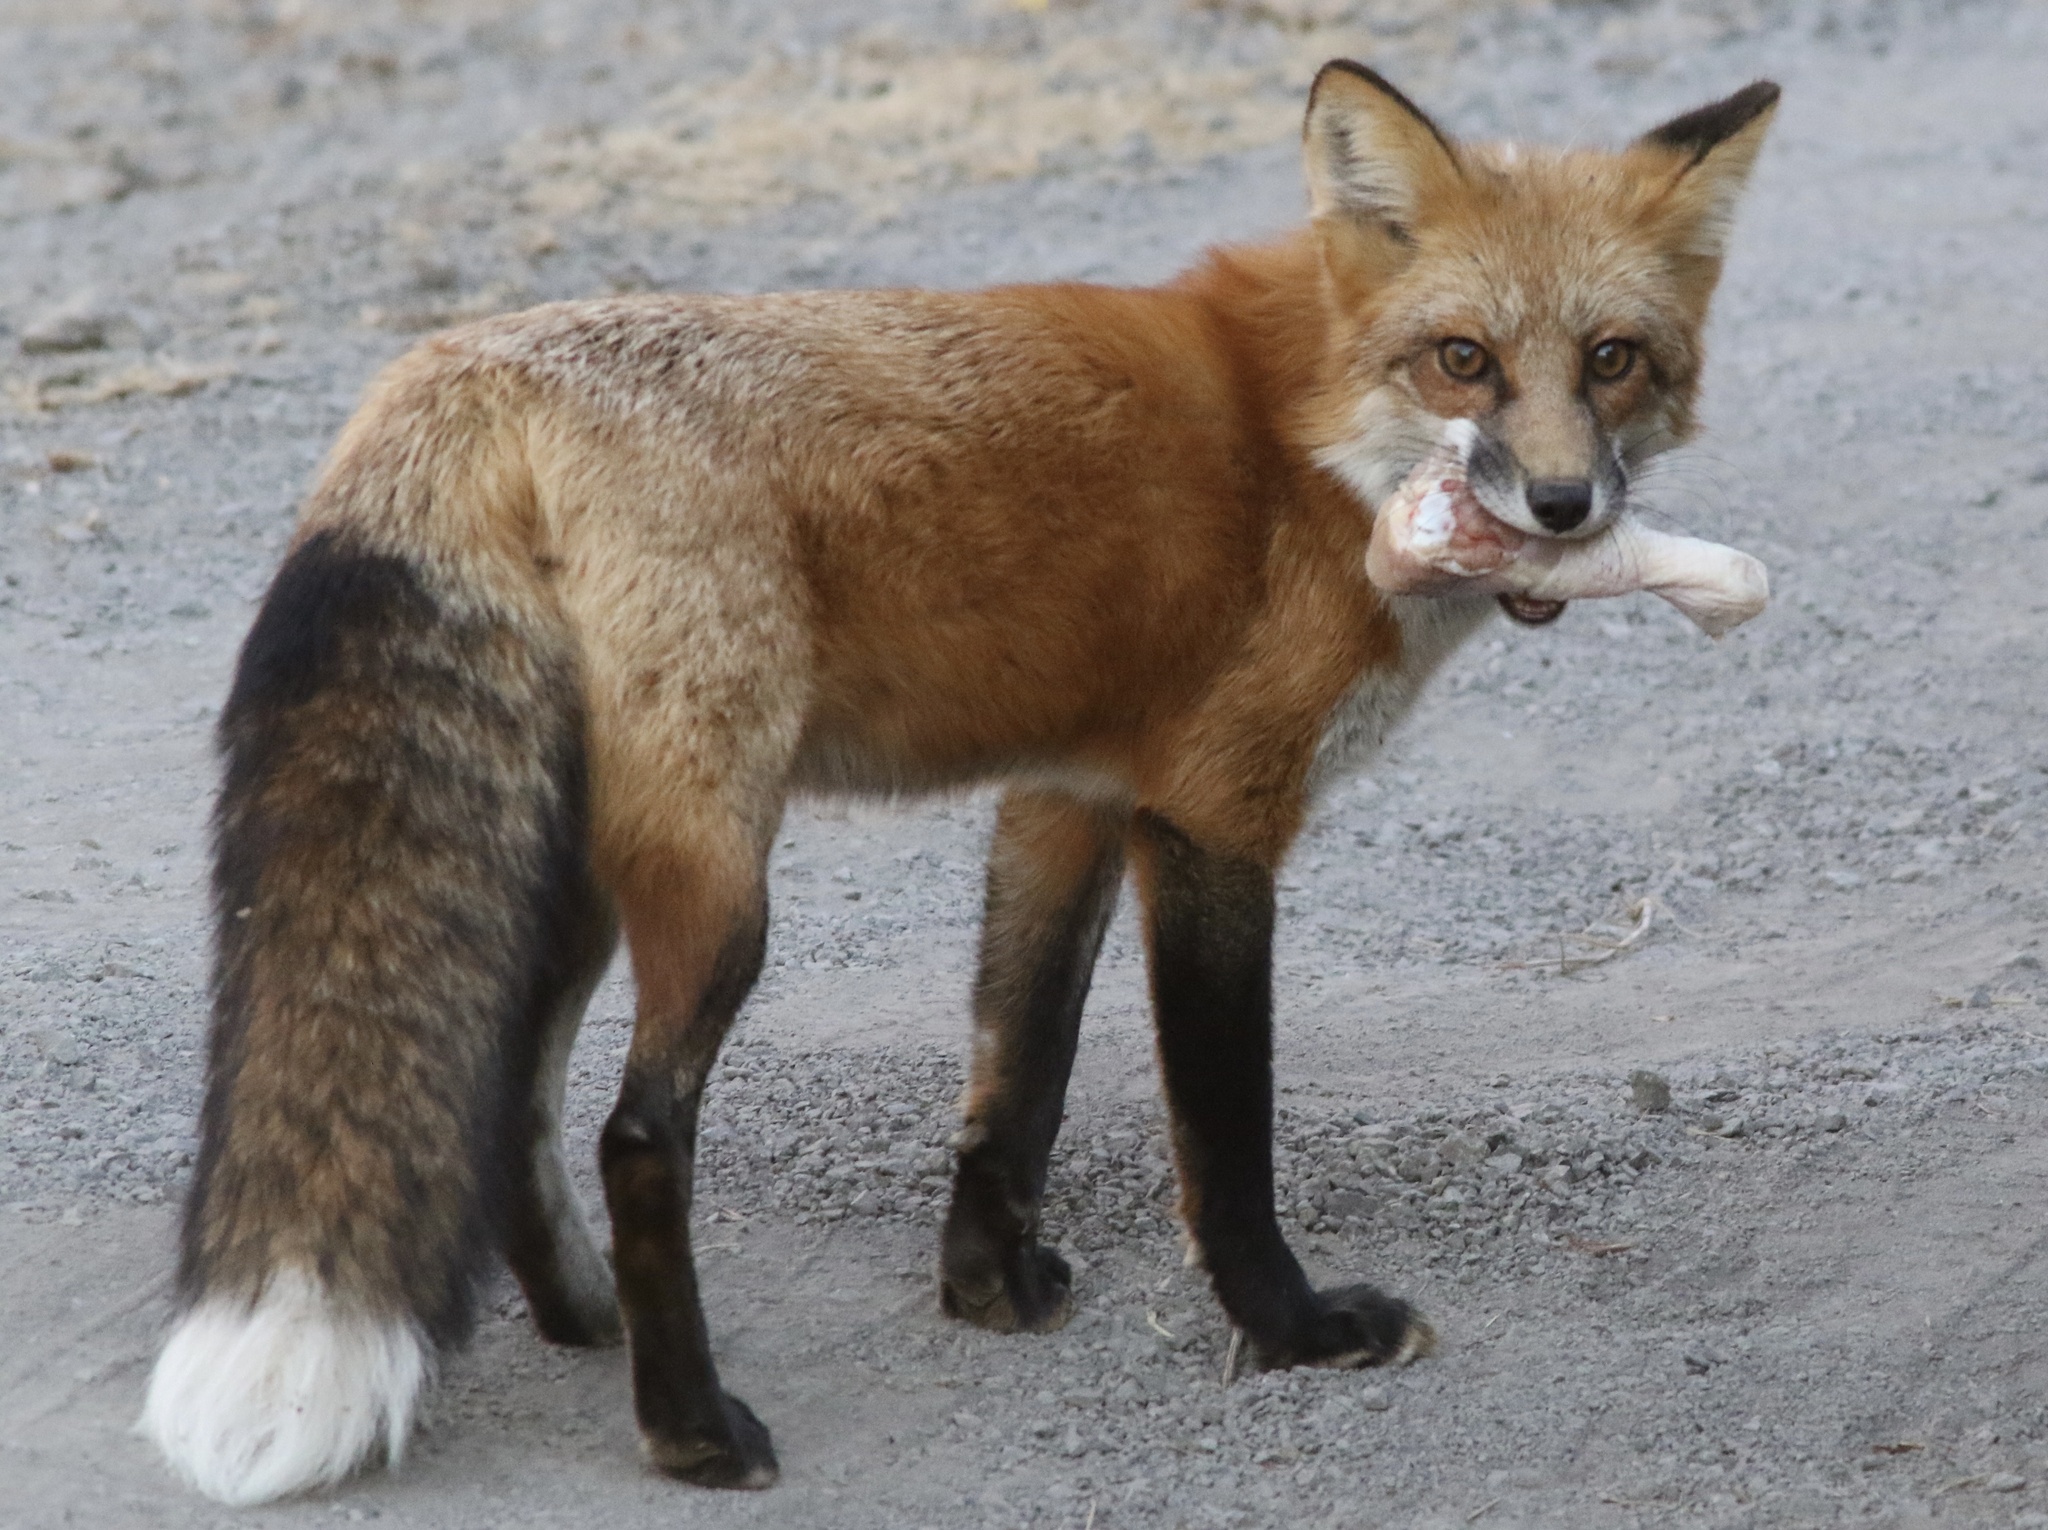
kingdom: Animalia
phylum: Chordata
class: Mammalia
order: Carnivora
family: Canidae
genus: Vulpes
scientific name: Vulpes vulpes
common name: Red fox
